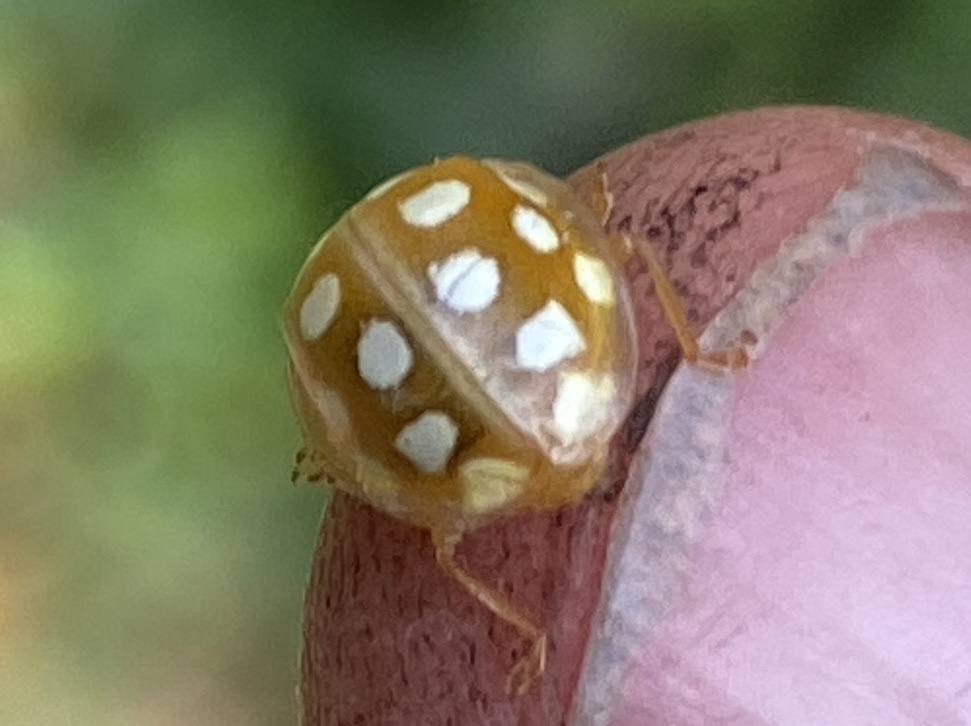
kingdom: Animalia
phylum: Arthropoda
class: Insecta
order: Coleoptera
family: Coccinellidae
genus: Halyzia
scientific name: Halyzia sedecimguttata
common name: Orange ladybird
